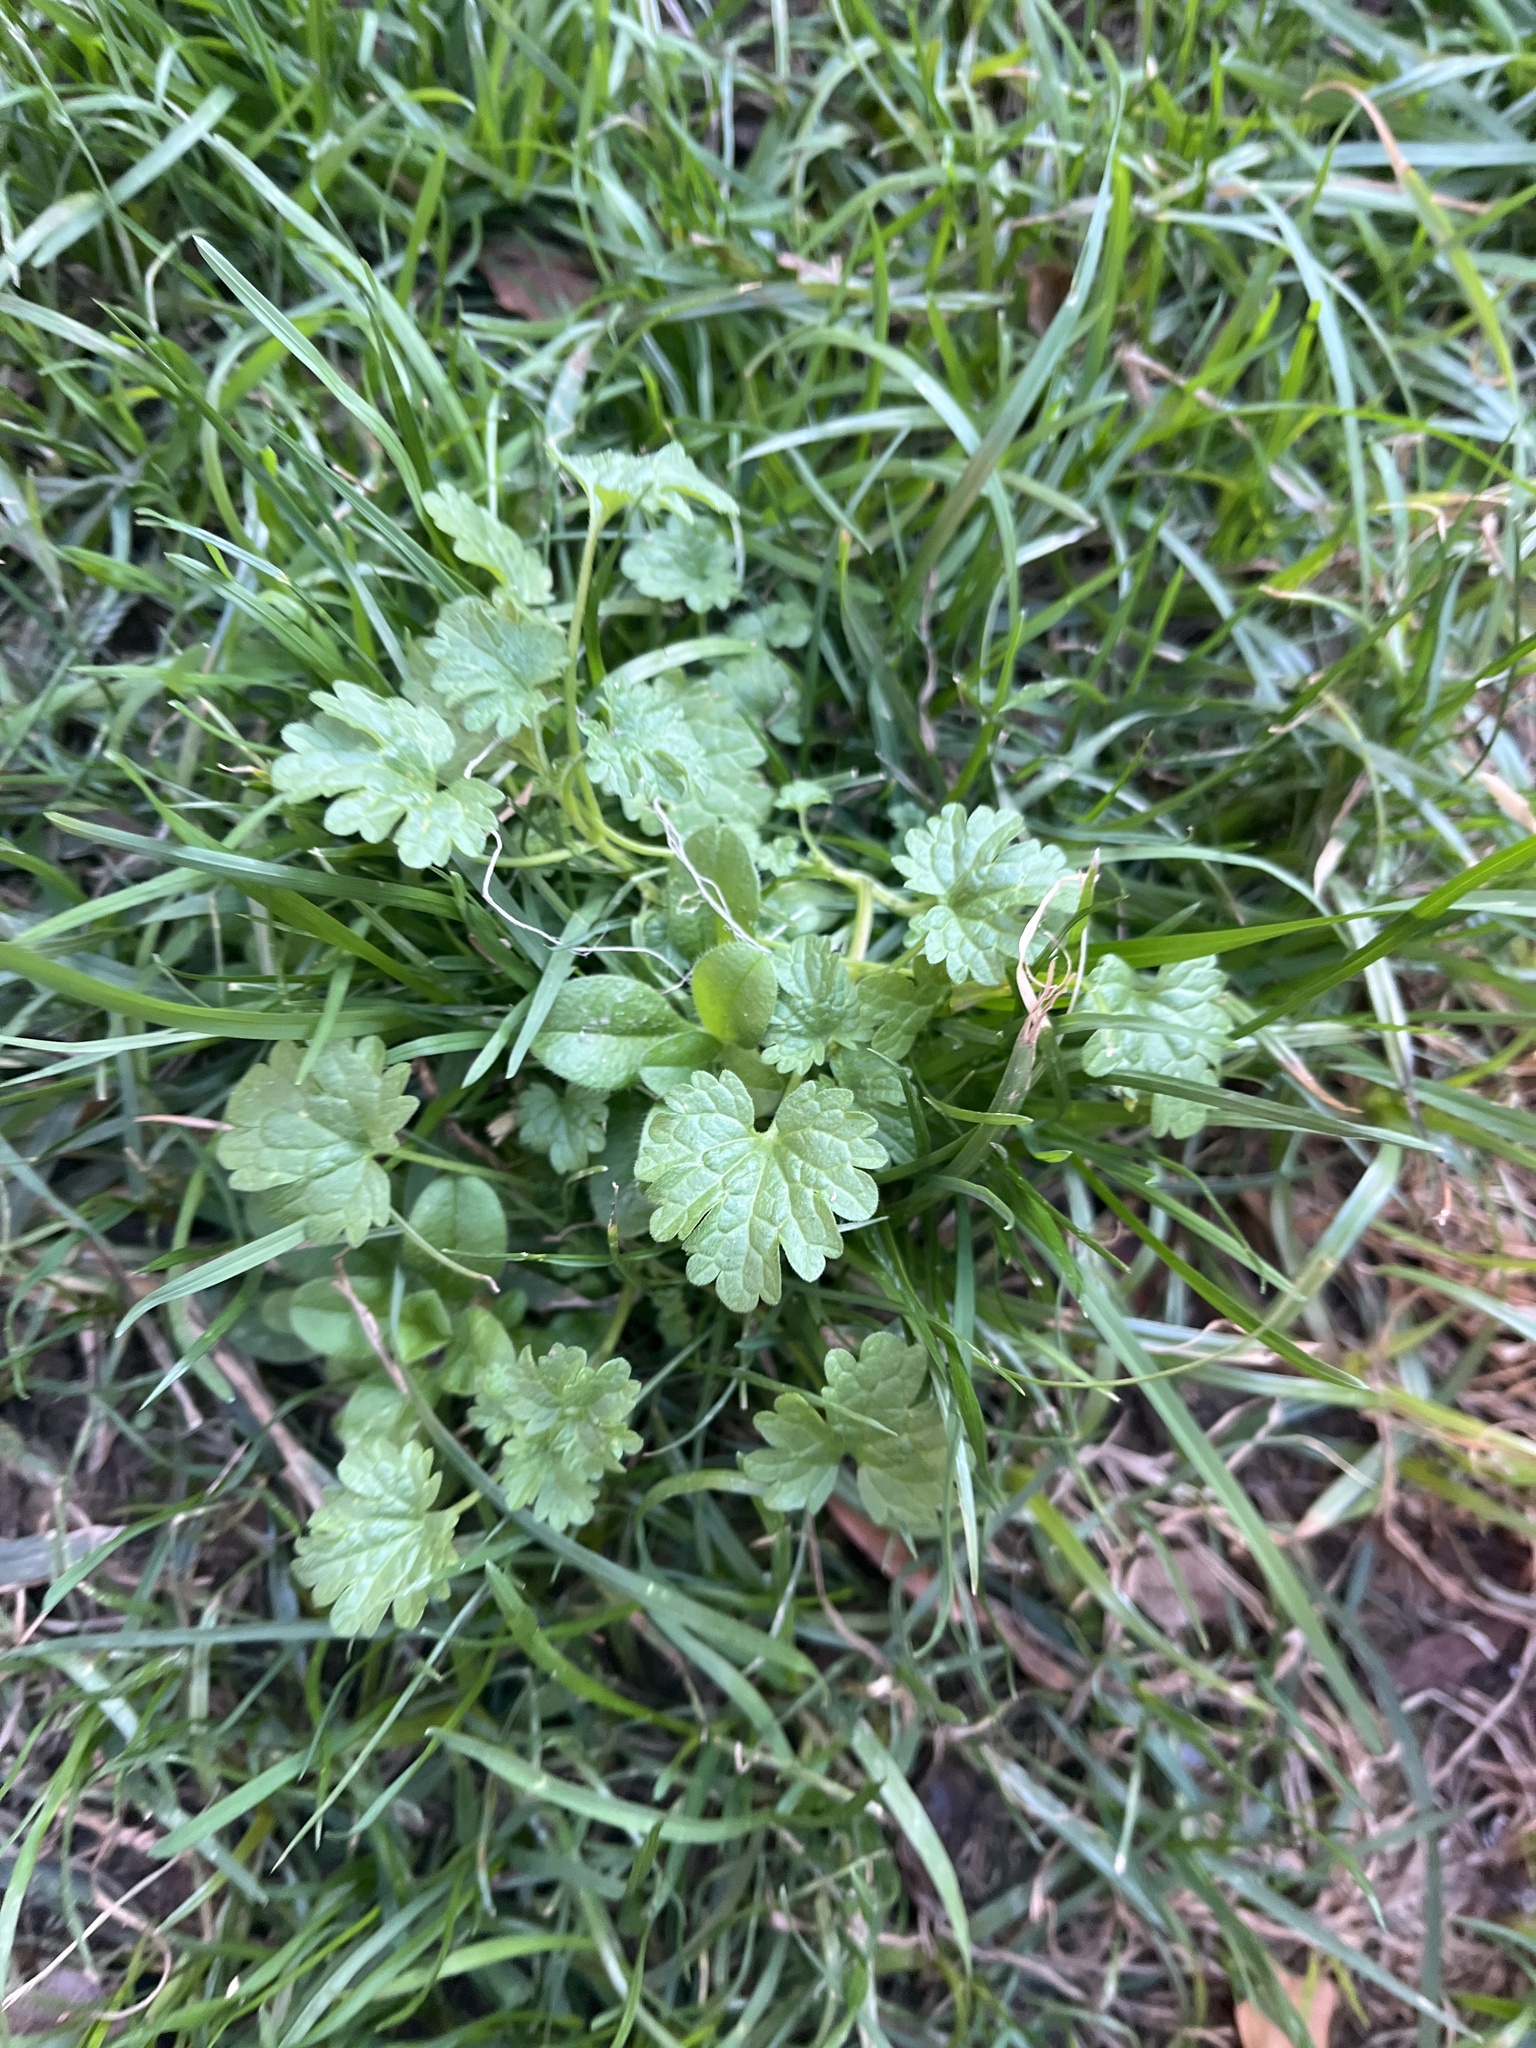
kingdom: Plantae
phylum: Tracheophyta
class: Magnoliopsida
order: Lamiales
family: Lamiaceae
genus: Lamium
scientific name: Lamium amplexicaule
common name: Henbit dead-nettle
